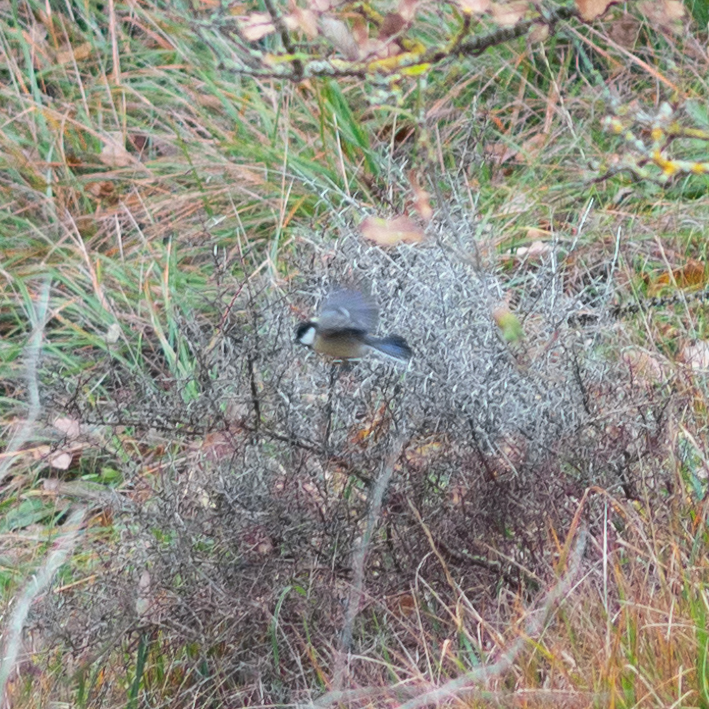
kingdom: Animalia
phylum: Chordata
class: Aves
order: Passeriformes
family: Paridae
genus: Parus
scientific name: Parus major
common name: Great tit
